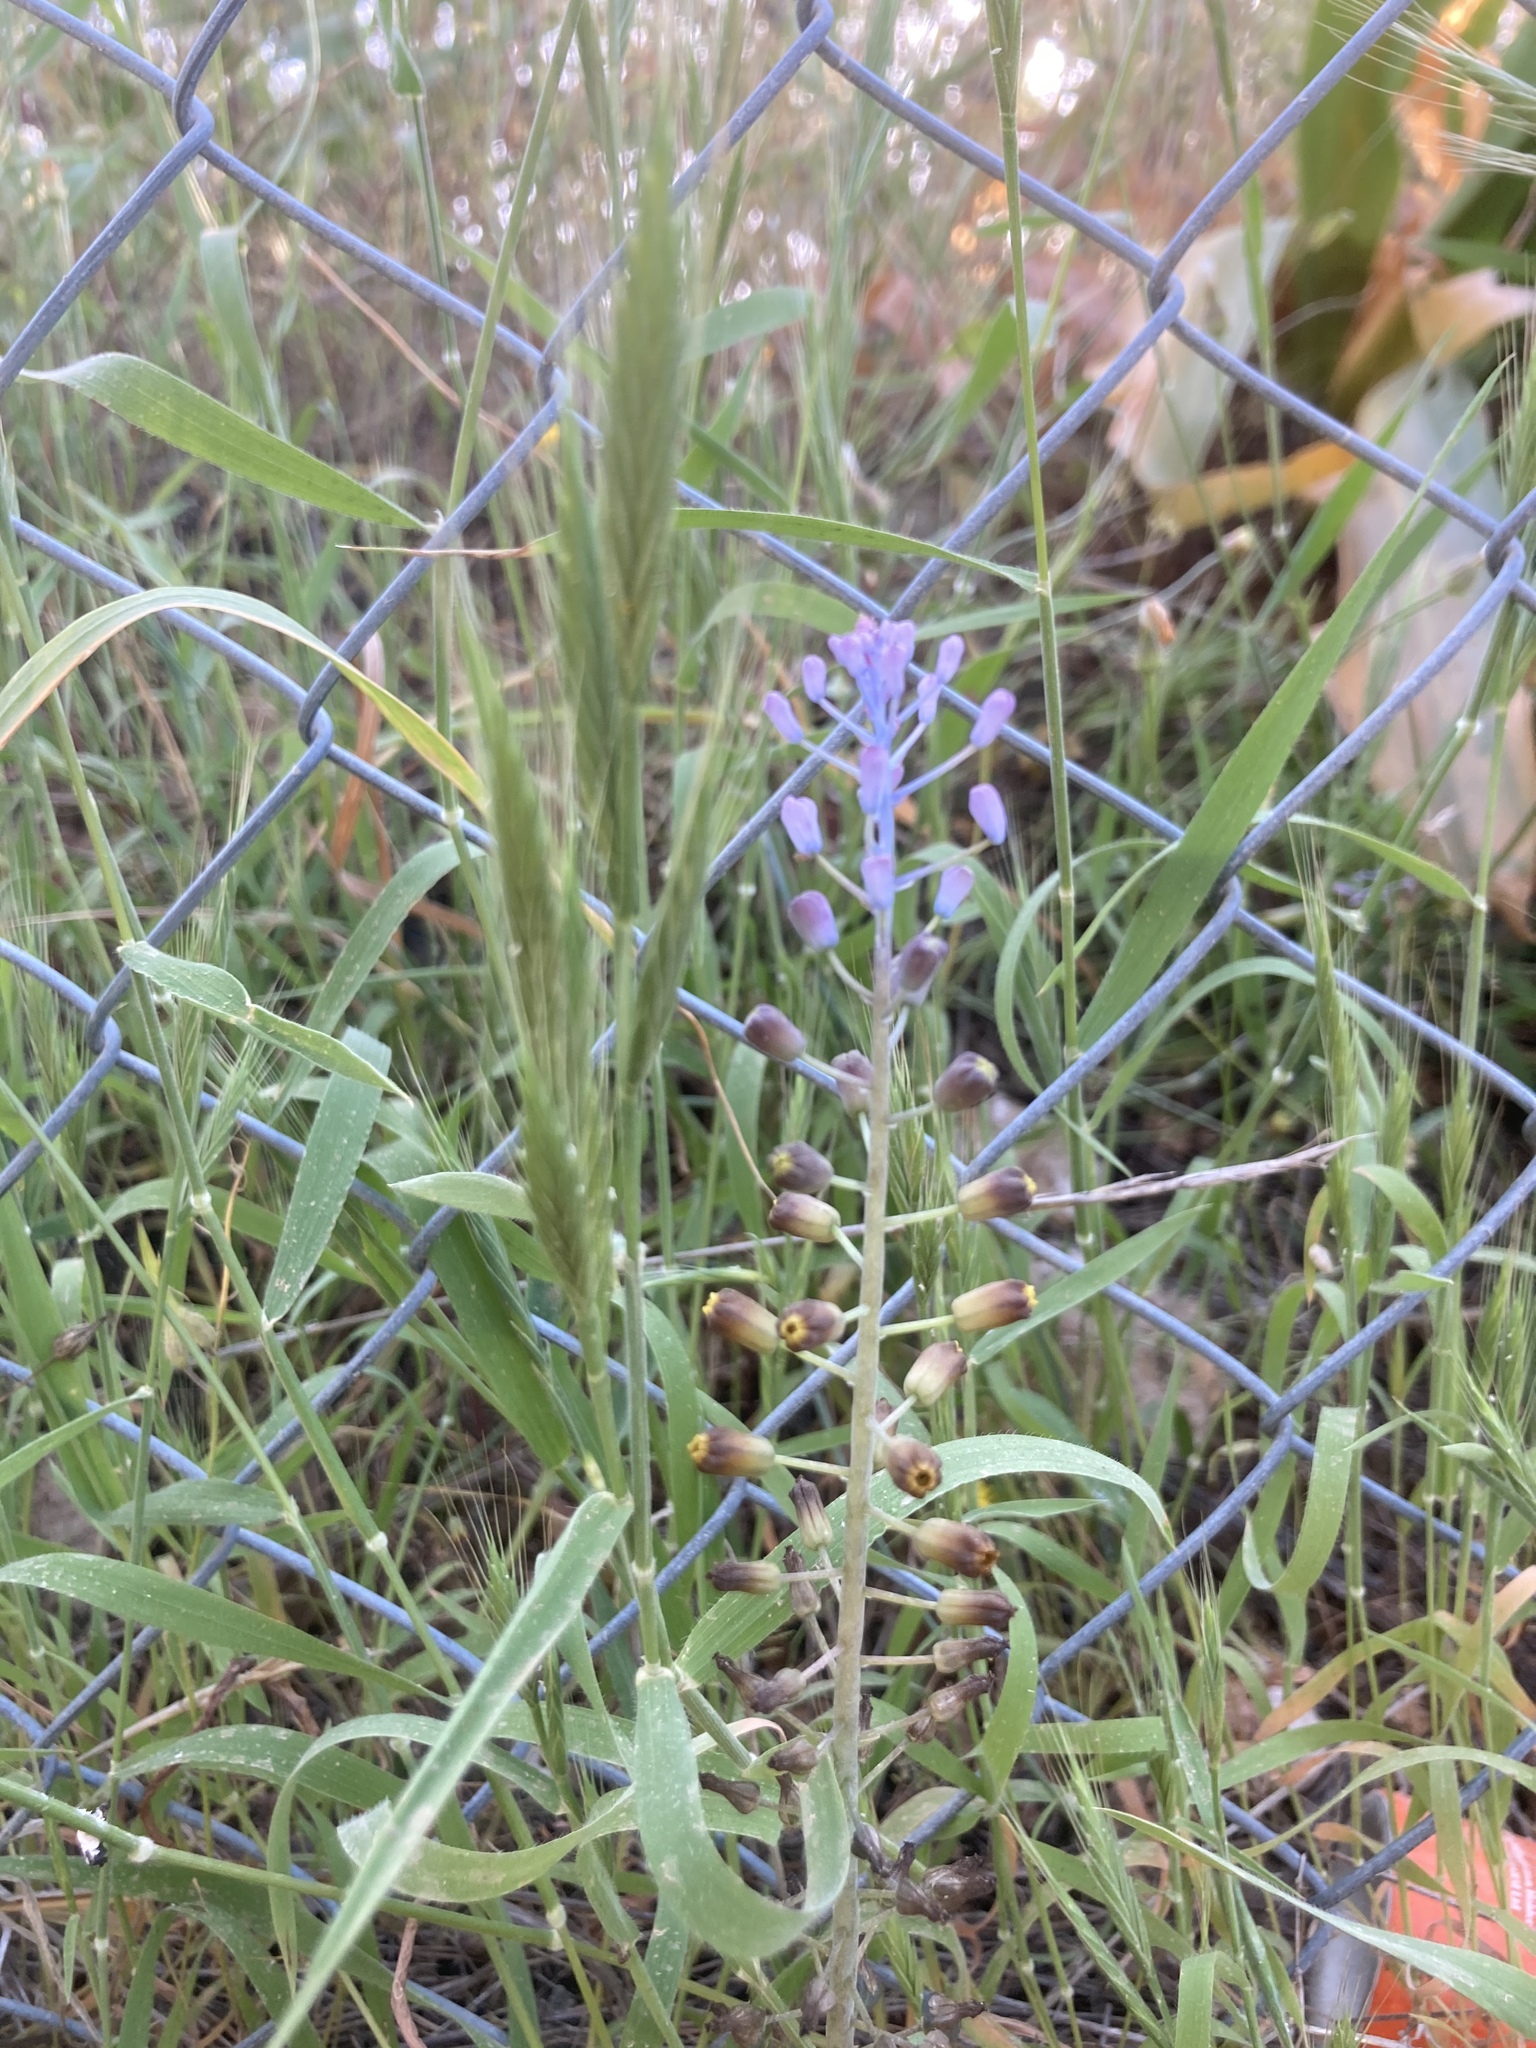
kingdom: Plantae
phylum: Tracheophyta
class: Liliopsida
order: Asparagales
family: Asparagaceae
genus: Muscari
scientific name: Muscari comosum
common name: Tassel hyacinth
